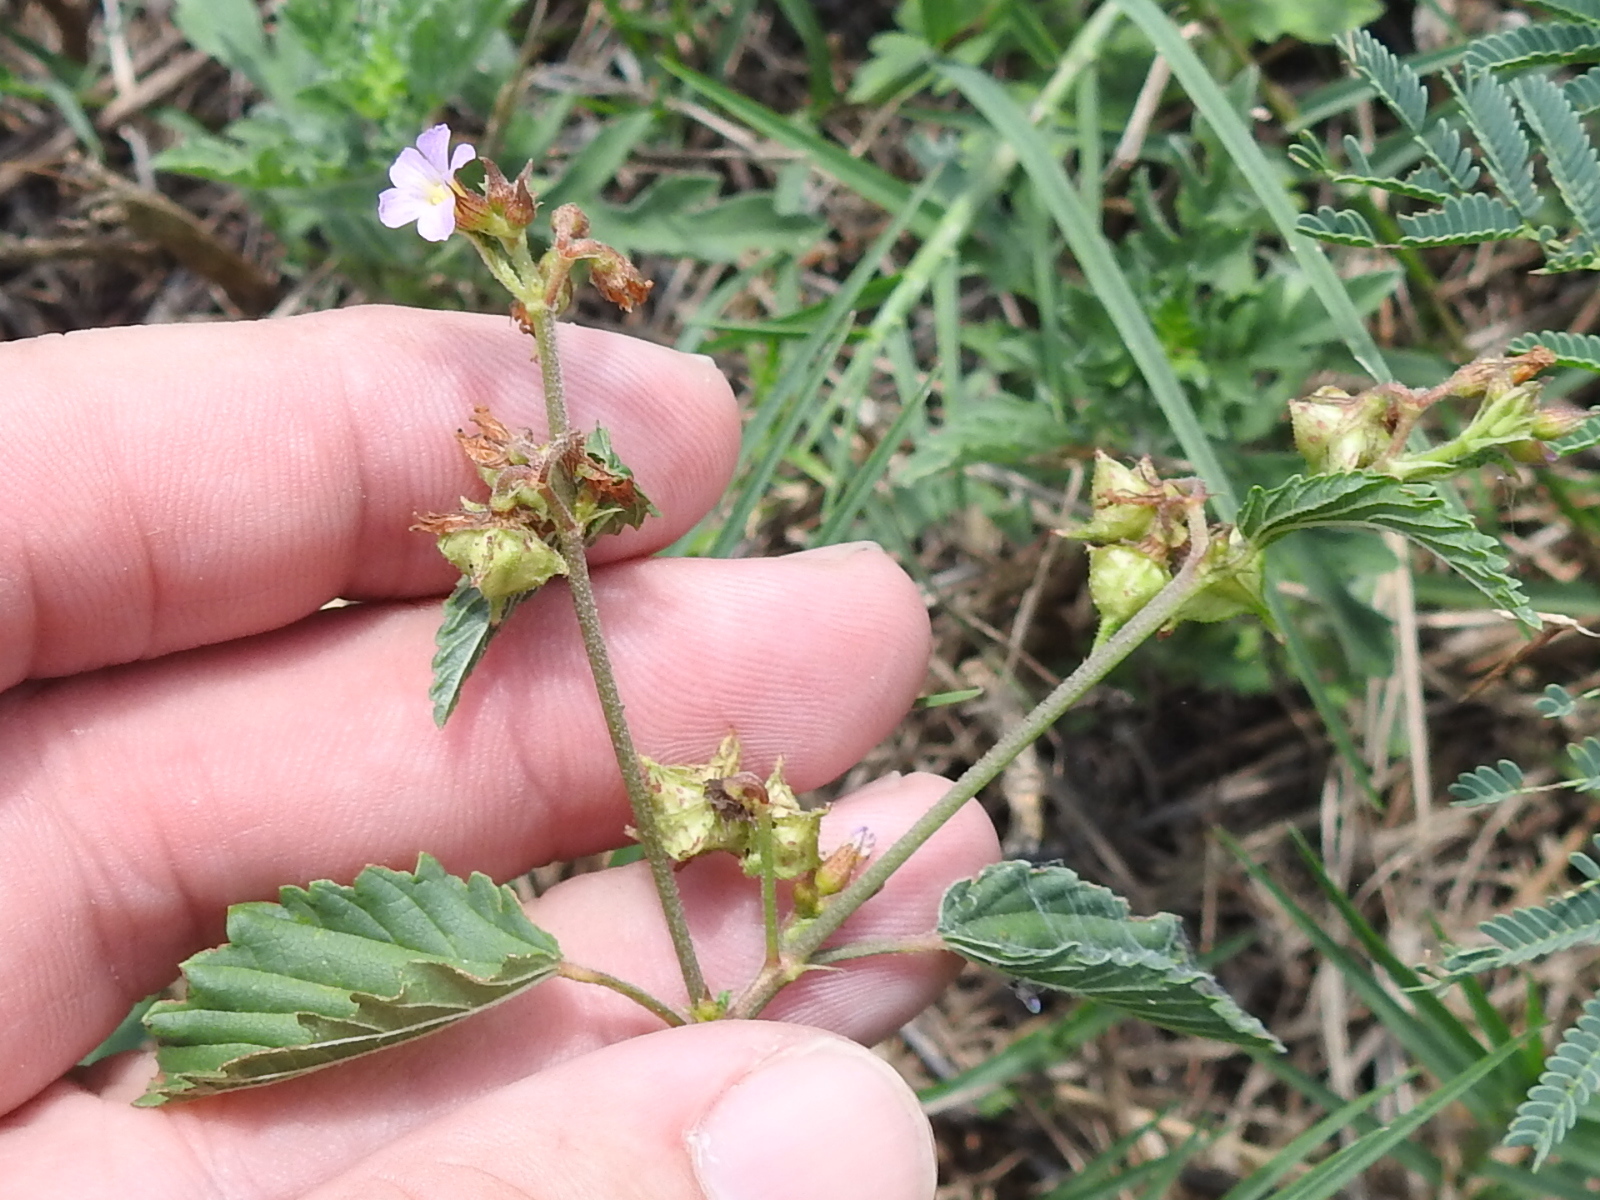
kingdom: Plantae
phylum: Tracheophyta
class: Magnoliopsida
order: Malvales
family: Malvaceae
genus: Melochia
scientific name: Melochia pyramidata
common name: Pyramidflower
